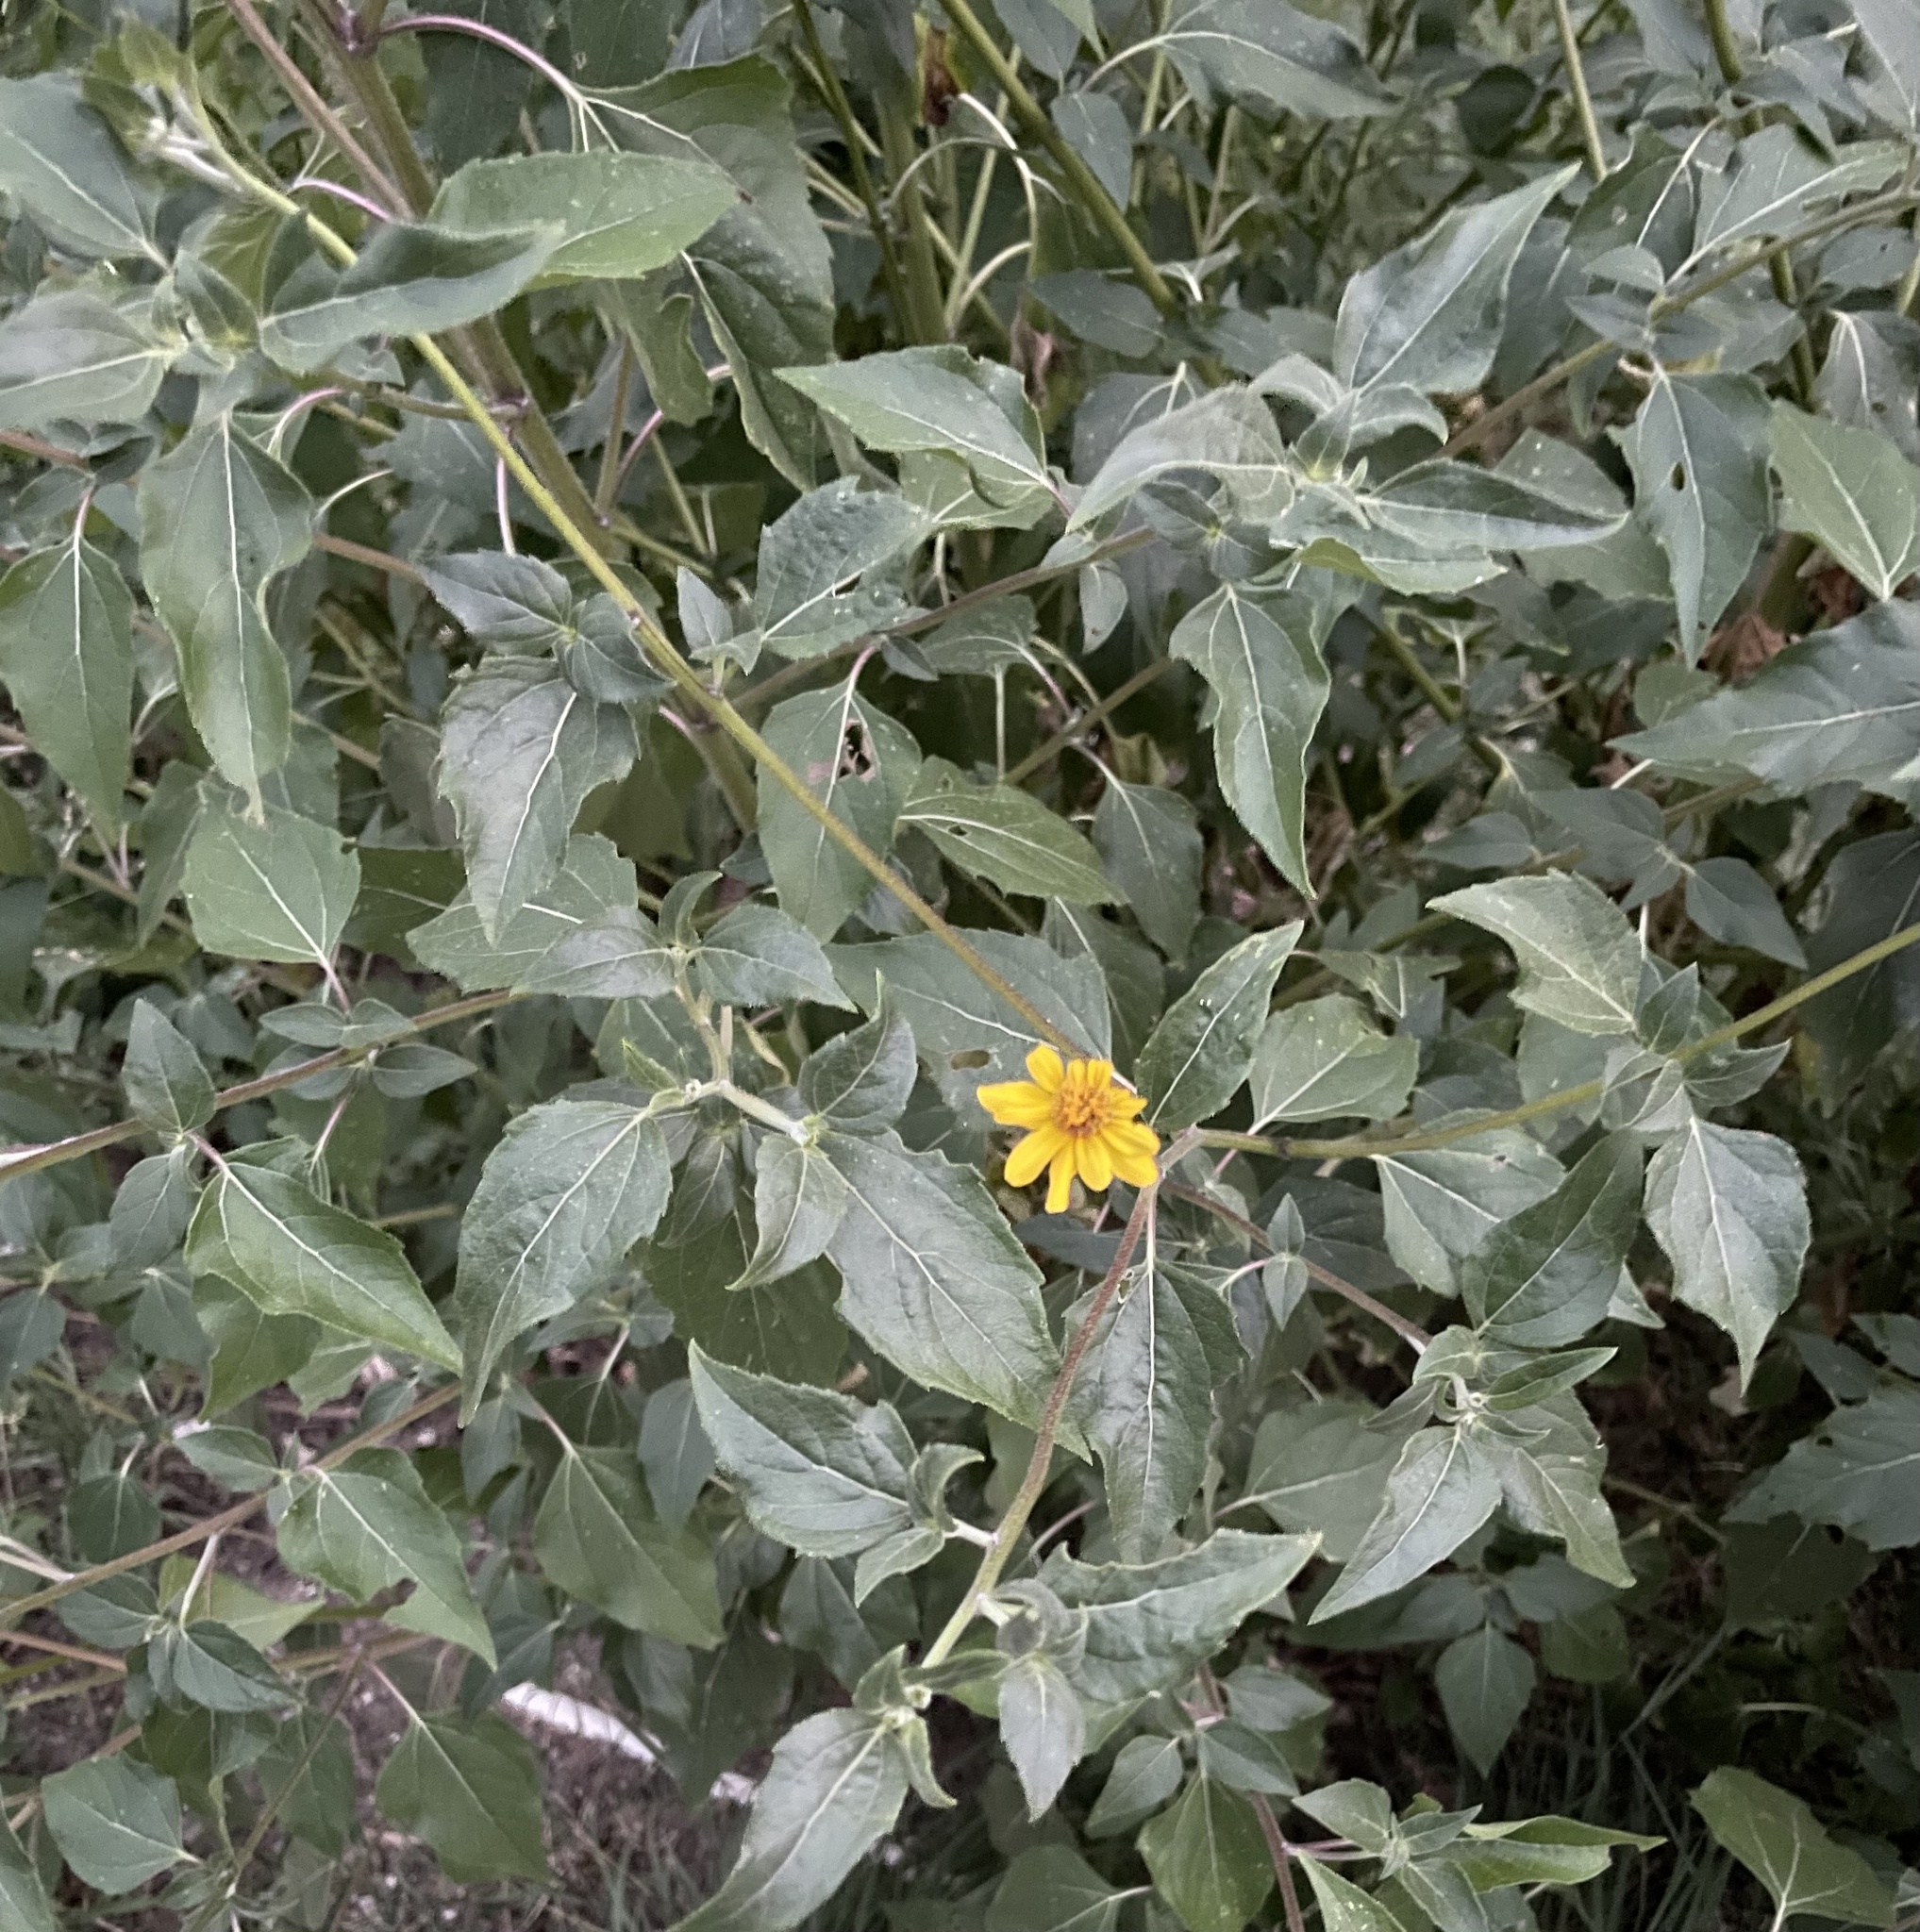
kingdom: Plantae
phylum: Tracheophyta
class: Magnoliopsida
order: Asterales
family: Asteraceae
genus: Viguiera
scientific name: Viguiera dentata
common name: Toothleaf
